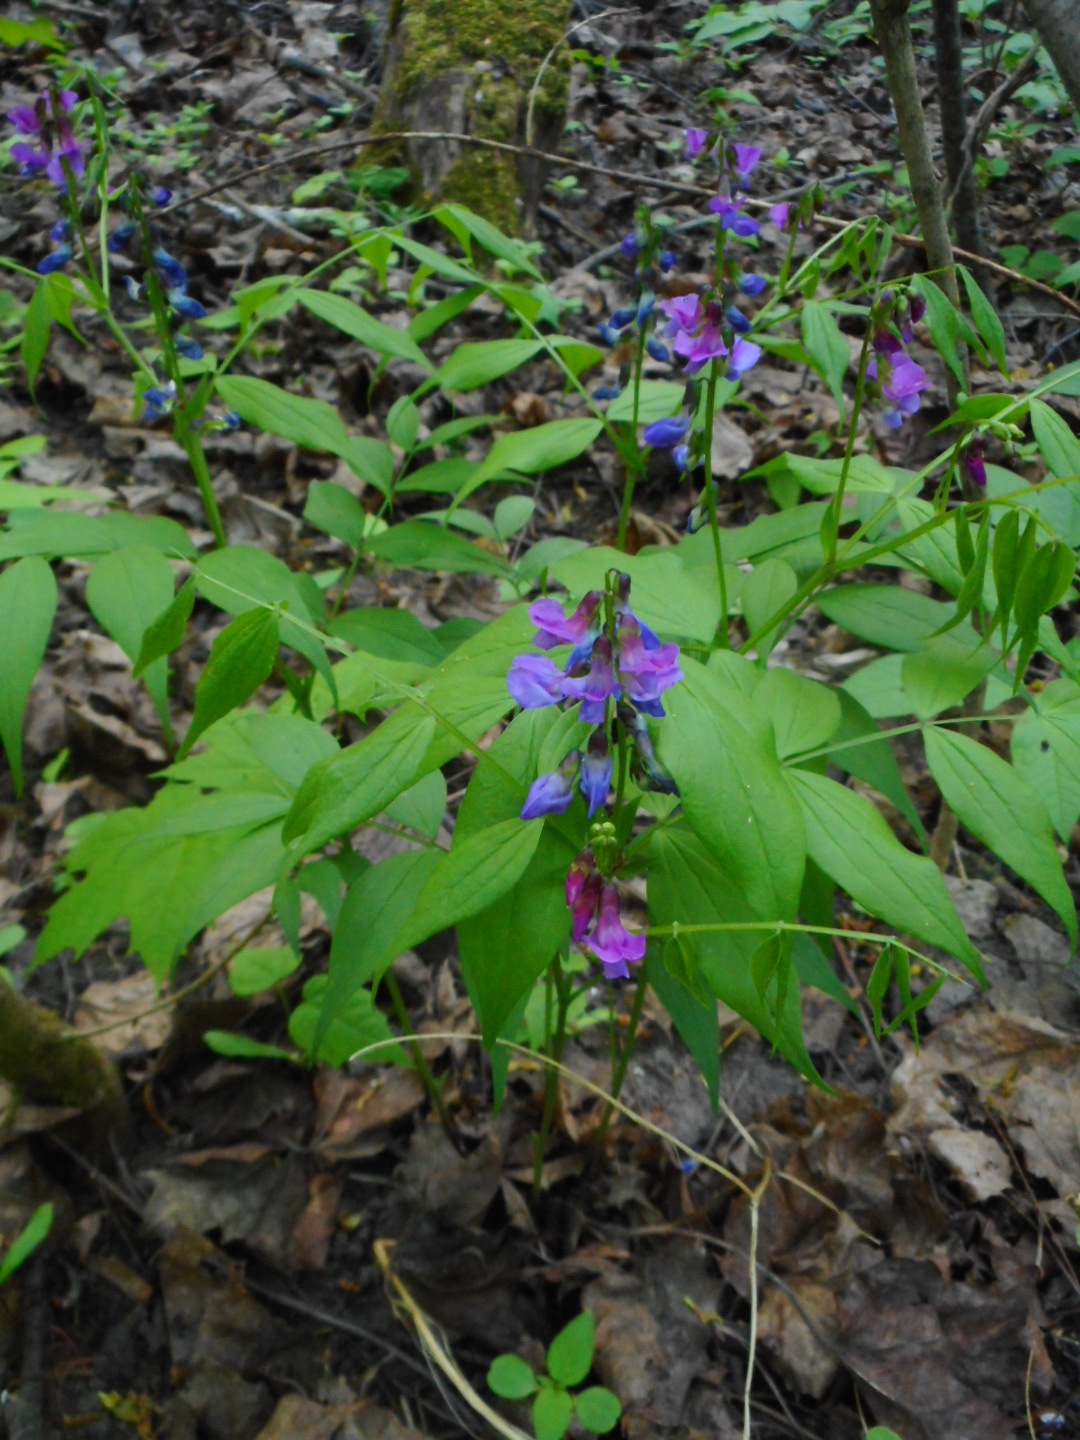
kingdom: Plantae
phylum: Tracheophyta
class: Magnoliopsida
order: Fabales
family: Fabaceae
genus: Lathyrus
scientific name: Lathyrus vernus
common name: Spring pea
